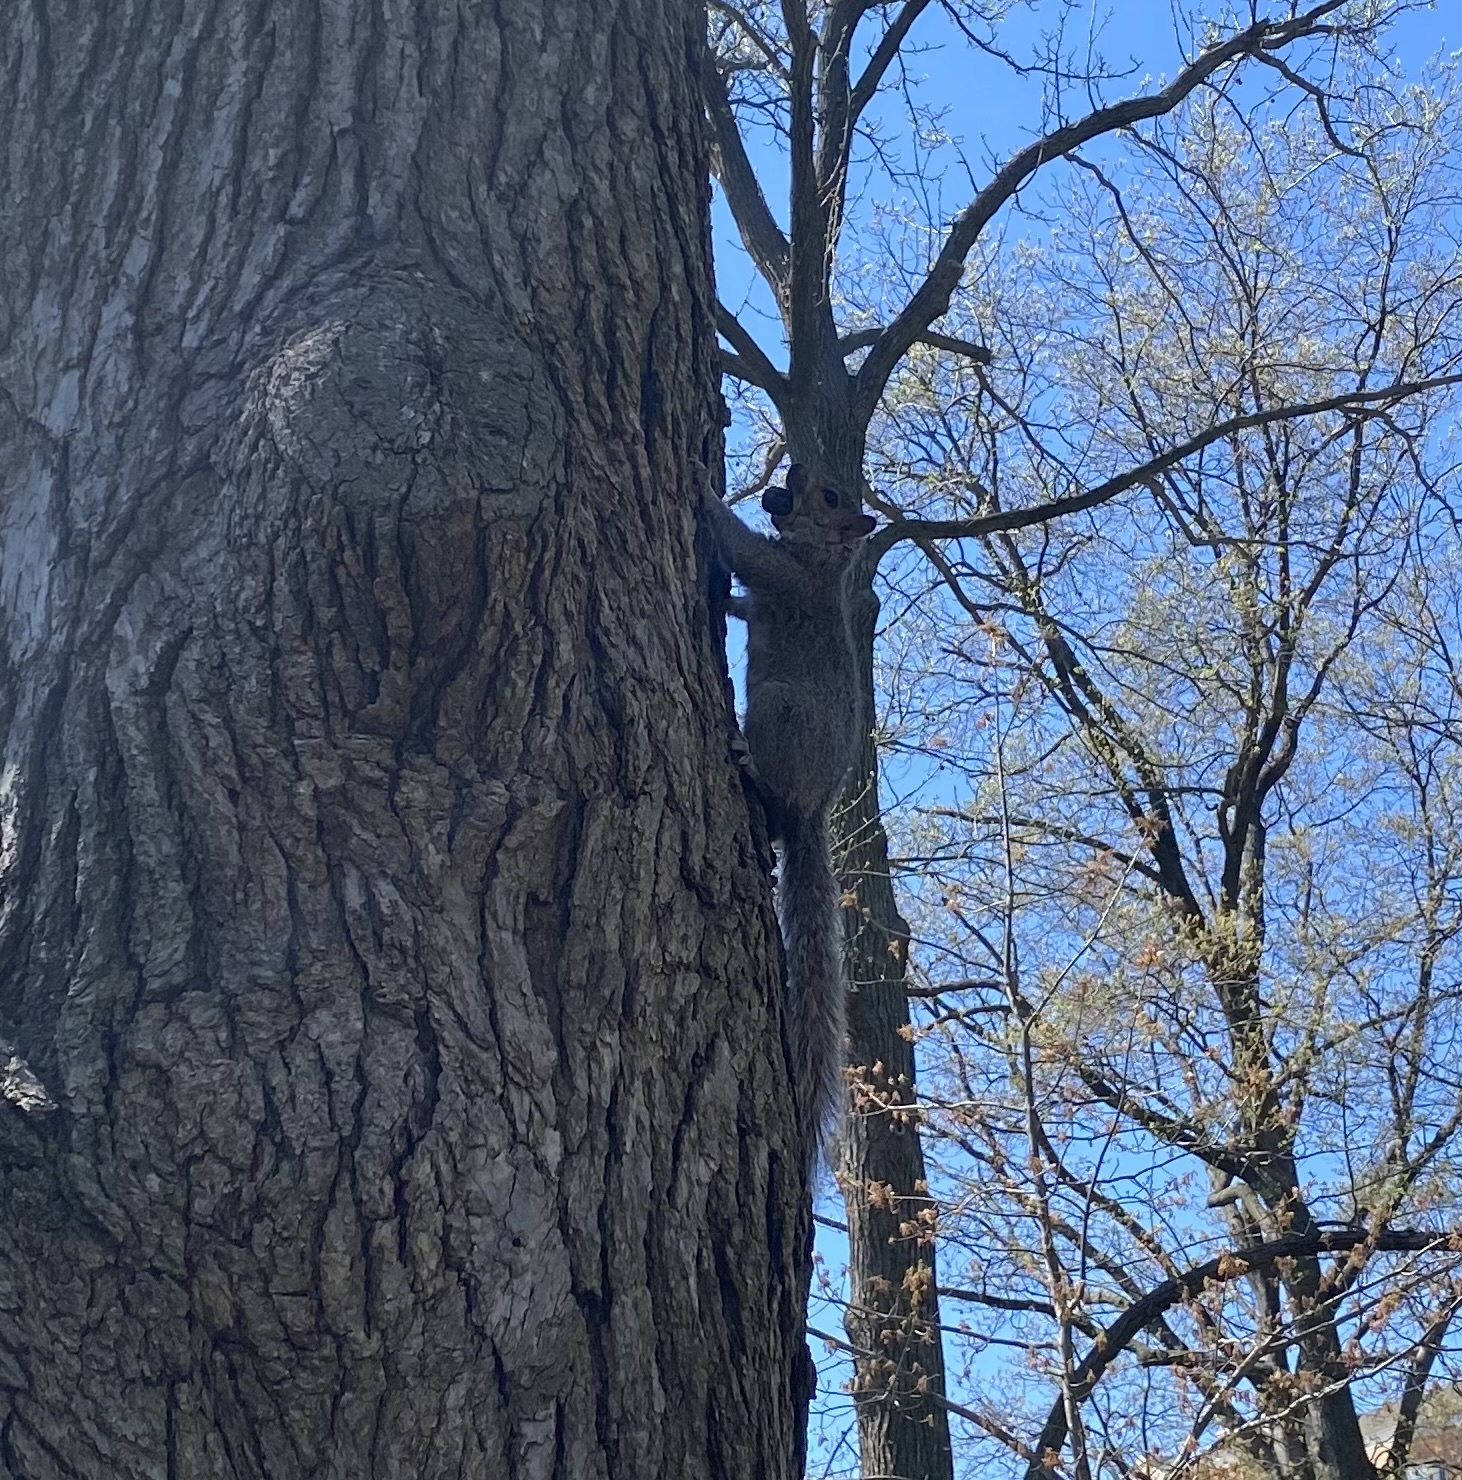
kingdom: Animalia
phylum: Chordata
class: Mammalia
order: Rodentia
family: Sciuridae
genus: Sciurus
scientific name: Sciurus carolinensis
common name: Eastern gray squirrel
